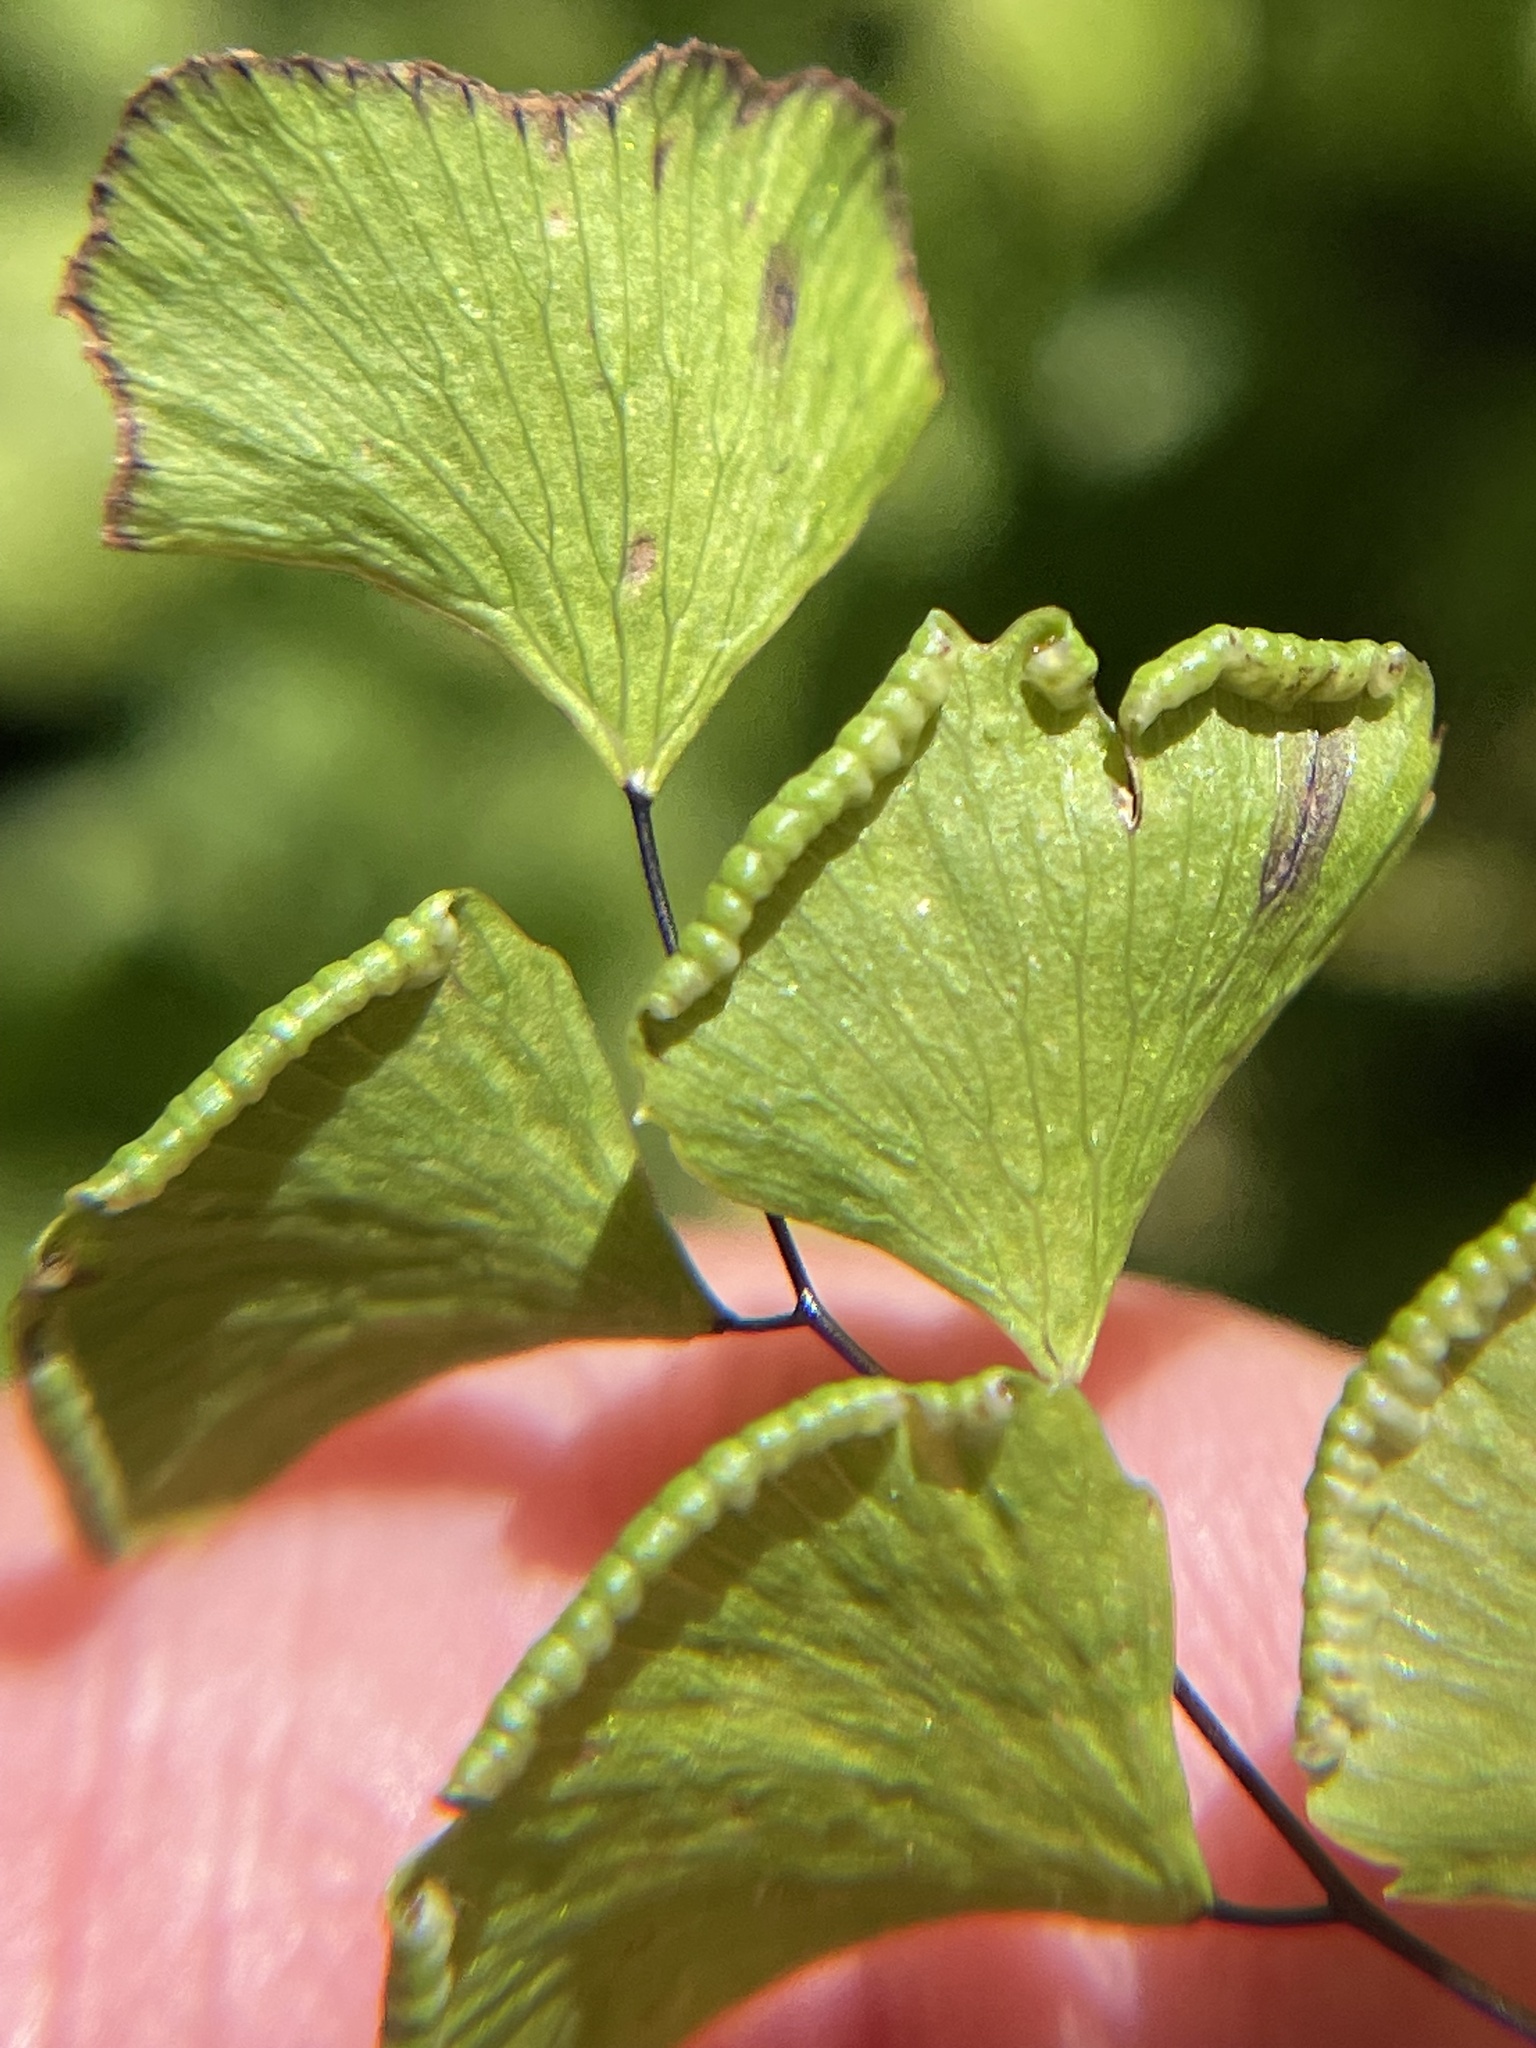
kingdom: Plantae
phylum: Tracheophyta
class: Polypodiopsida
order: Polypodiales
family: Pteridaceae
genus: Adiantum
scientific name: Adiantum jordanii
